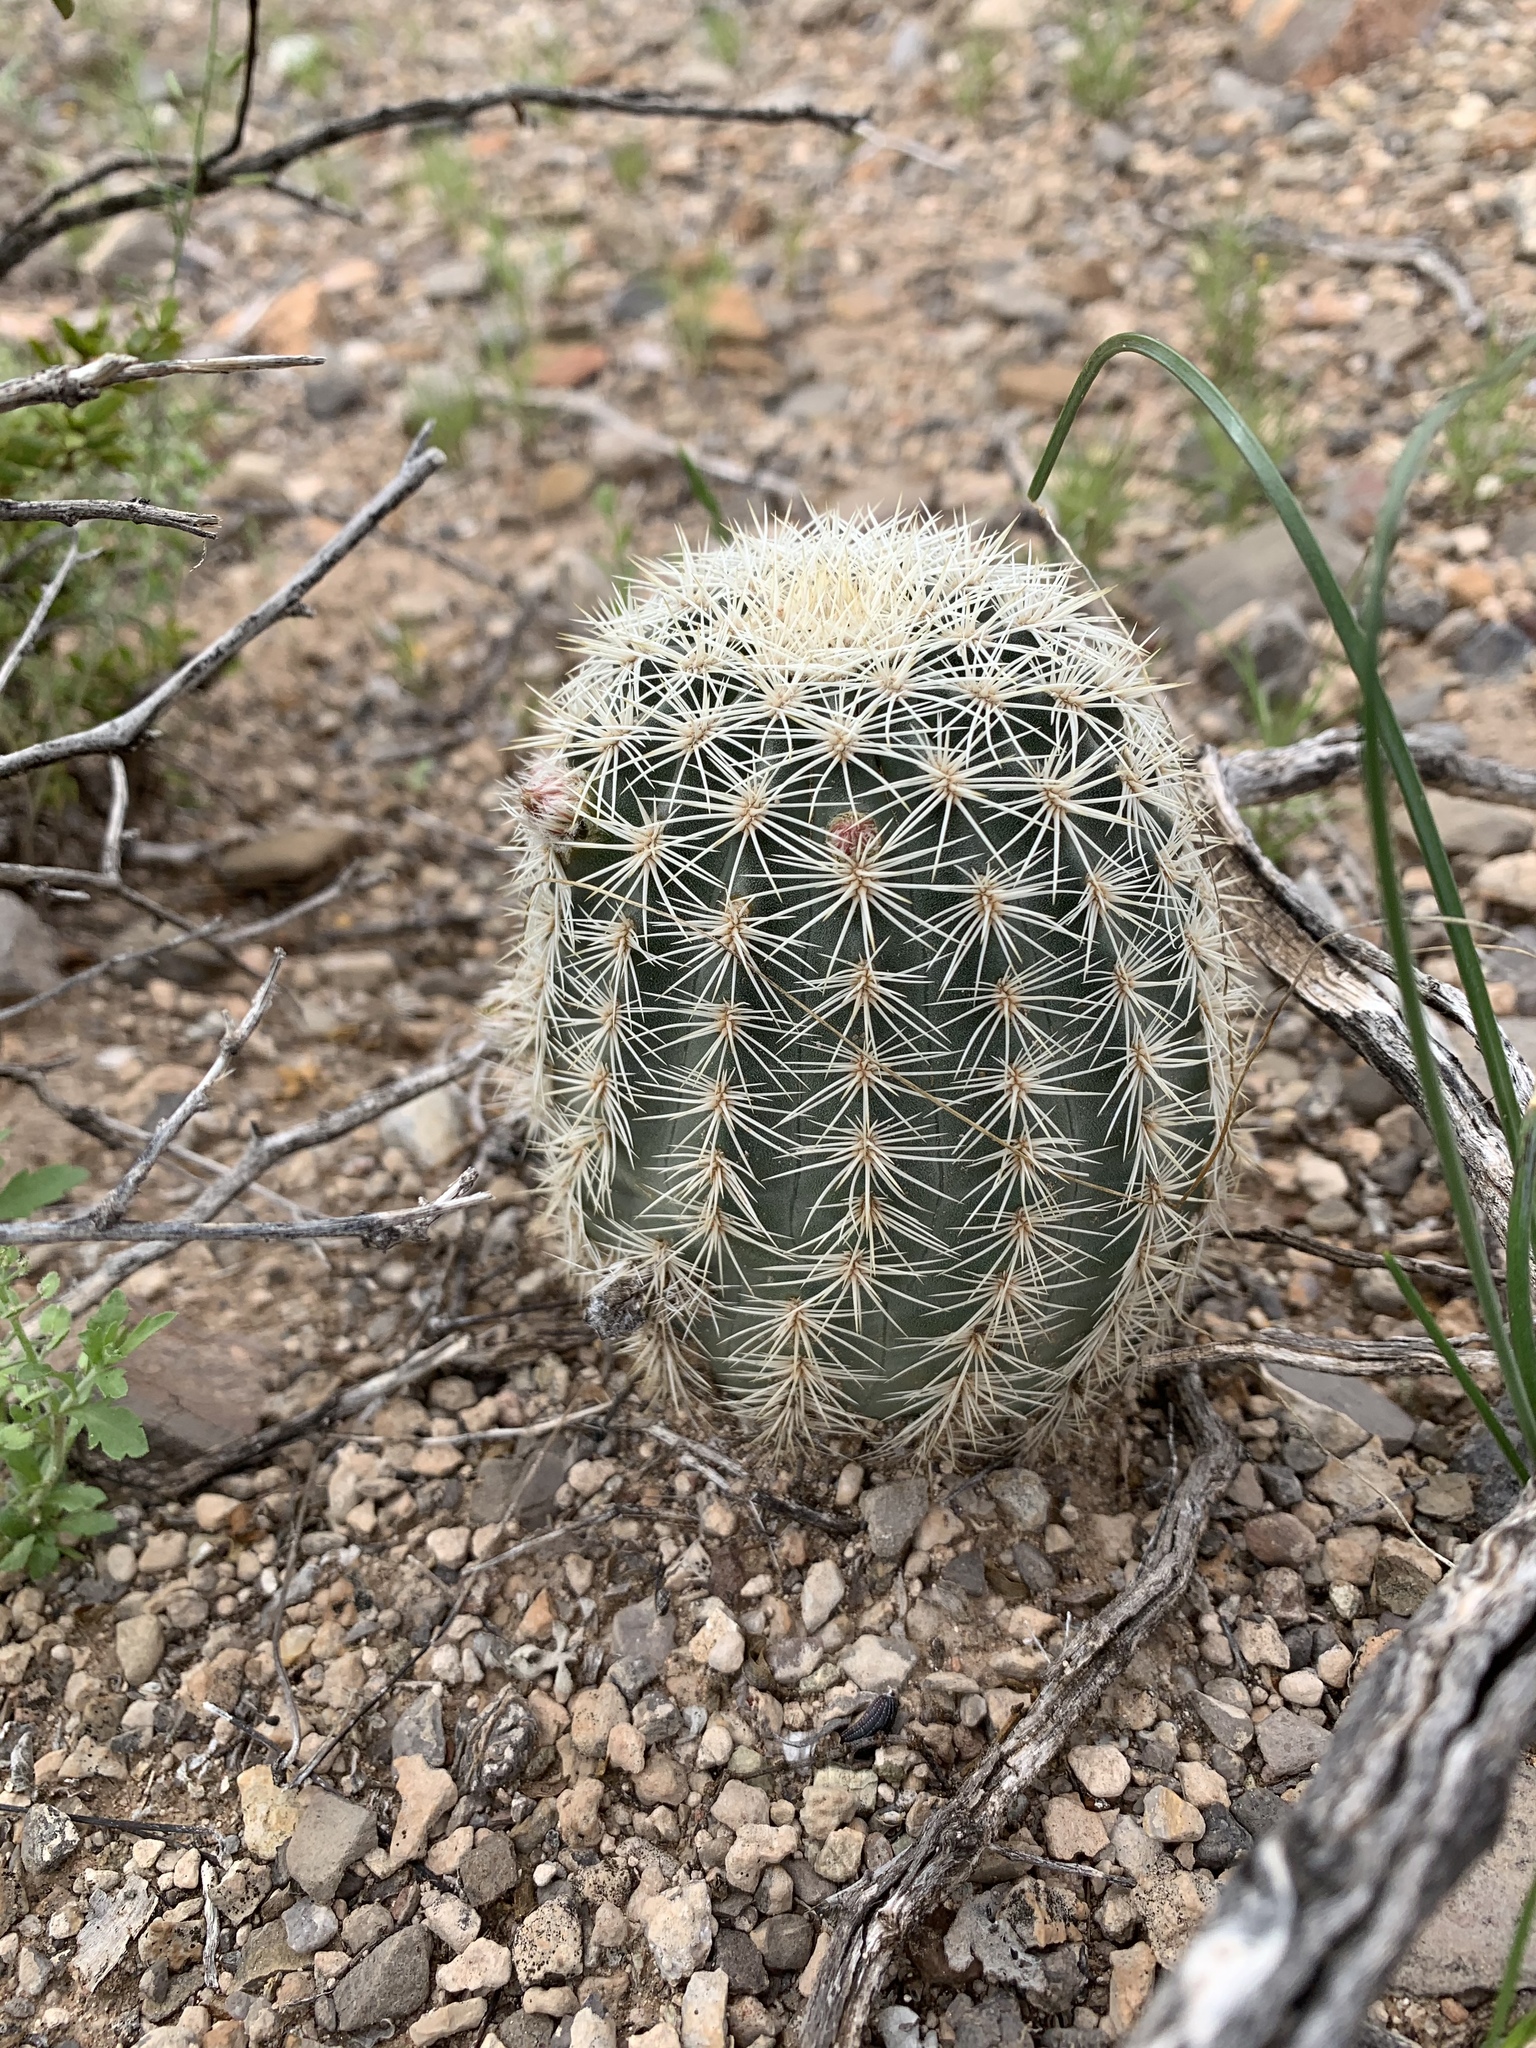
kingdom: Plantae
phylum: Tracheophyta
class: Magnoliopsida
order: Caryophyllales
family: Cactaceae
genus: Echinocereus
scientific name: Echinocereus dasyacanthus
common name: Spiny hedgehog cactus
